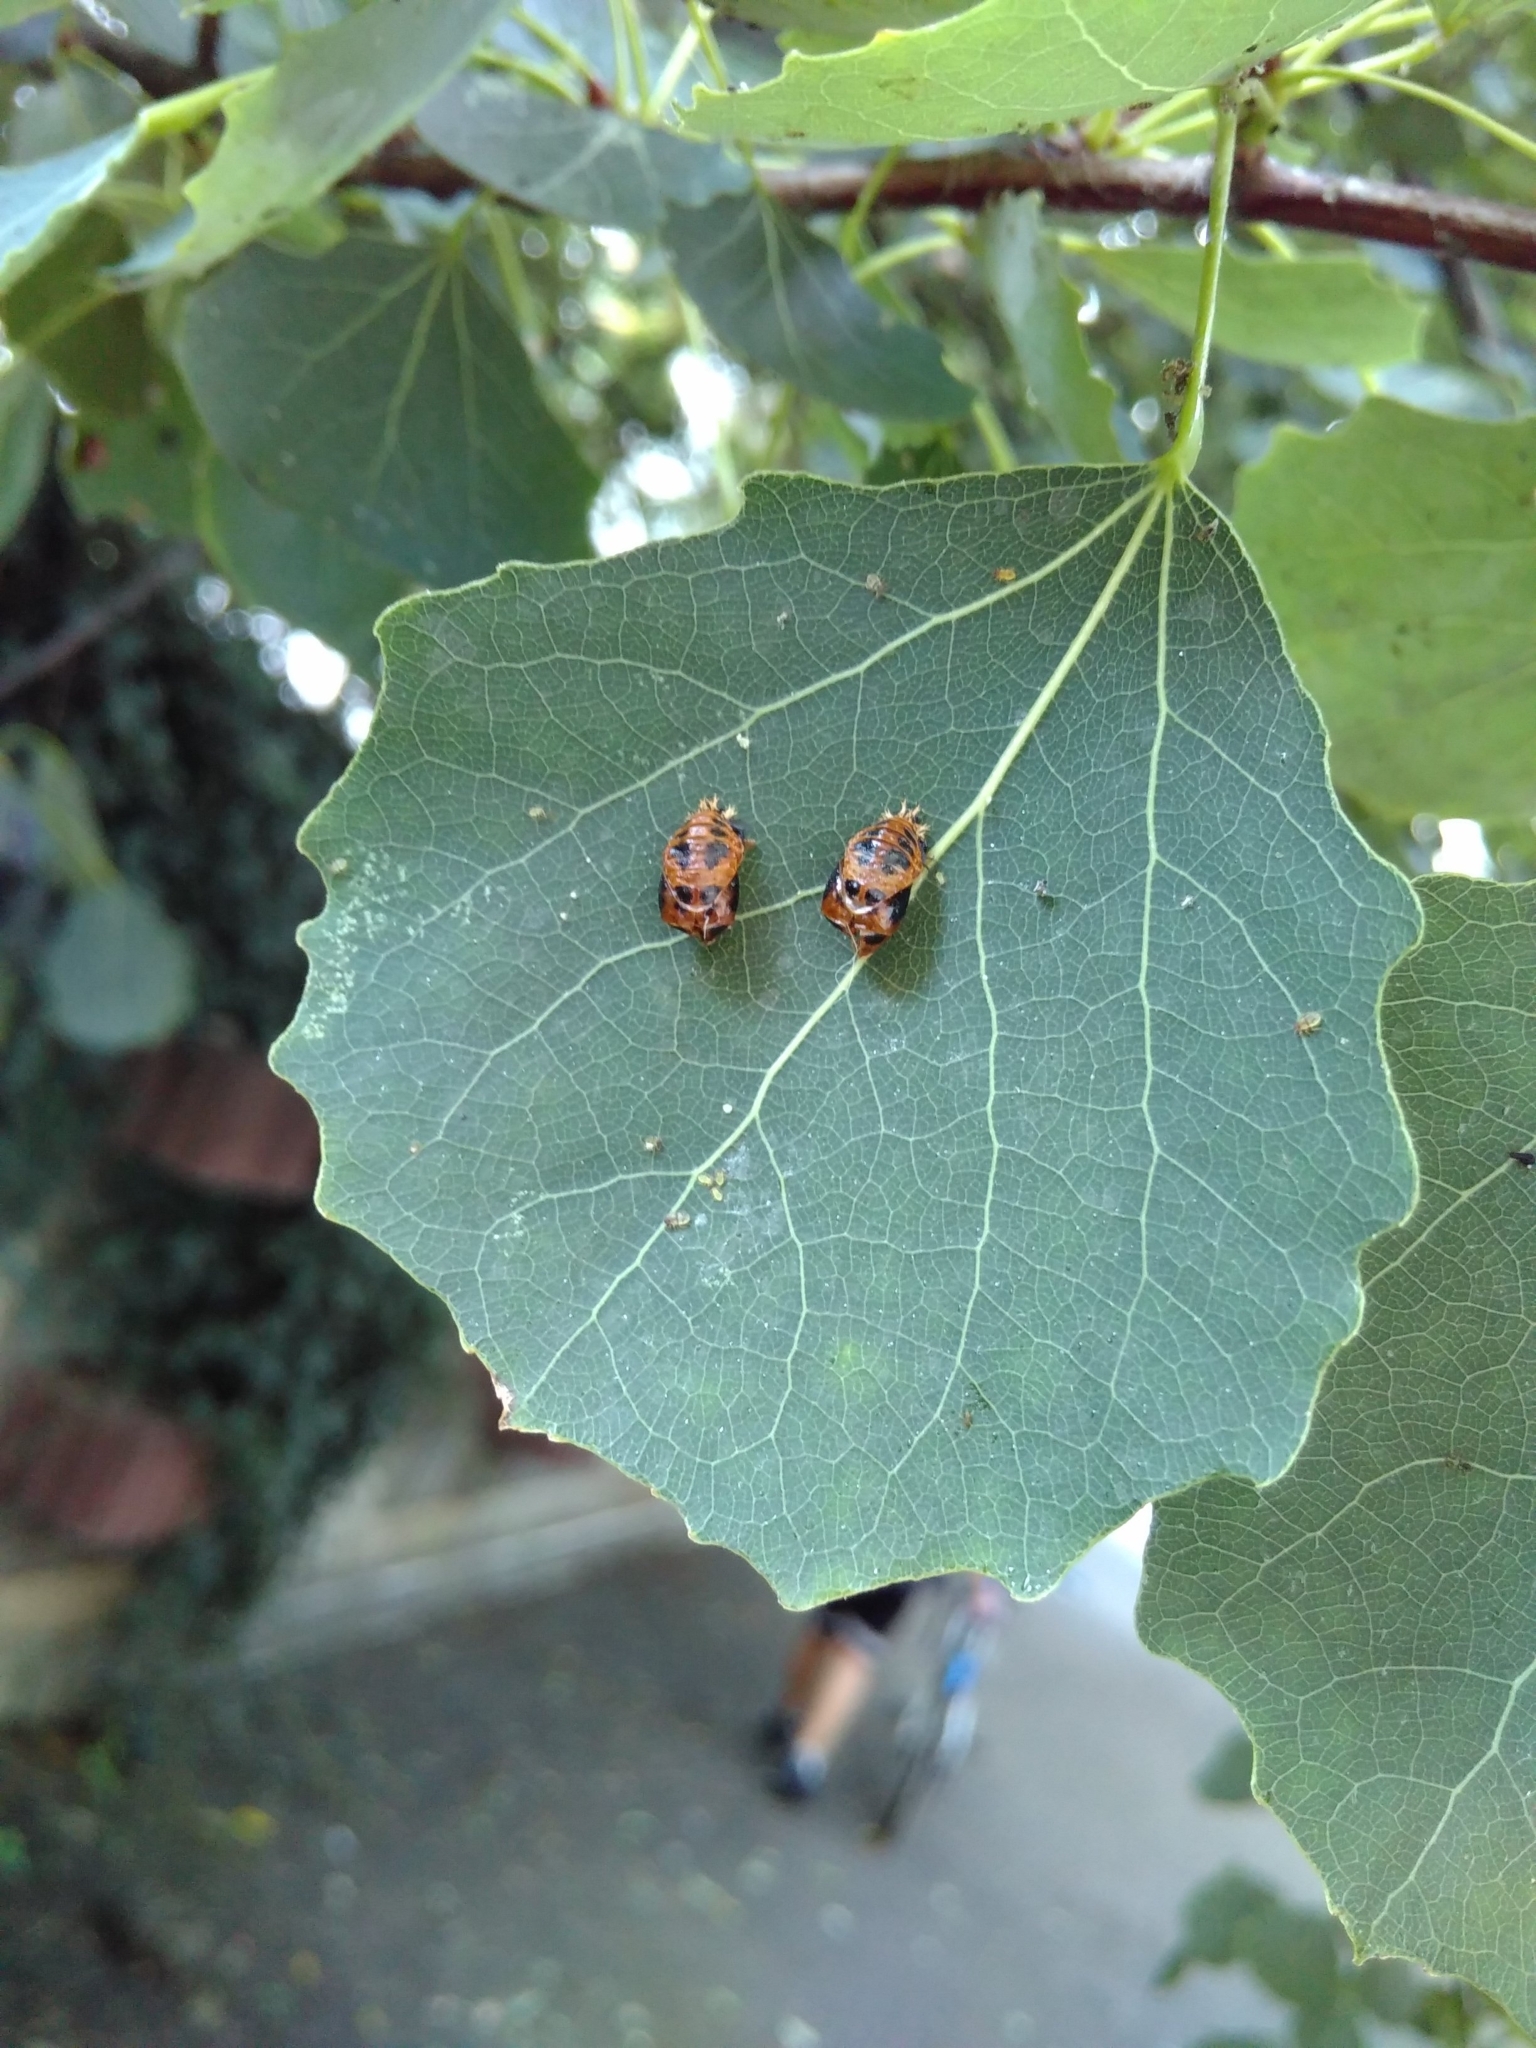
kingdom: Animalia
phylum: Arthropoda
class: Insecta
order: Coleoptera
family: Coccinellidae
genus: Harmonia
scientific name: Harmonia axyridis
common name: Harlequin ladybird
